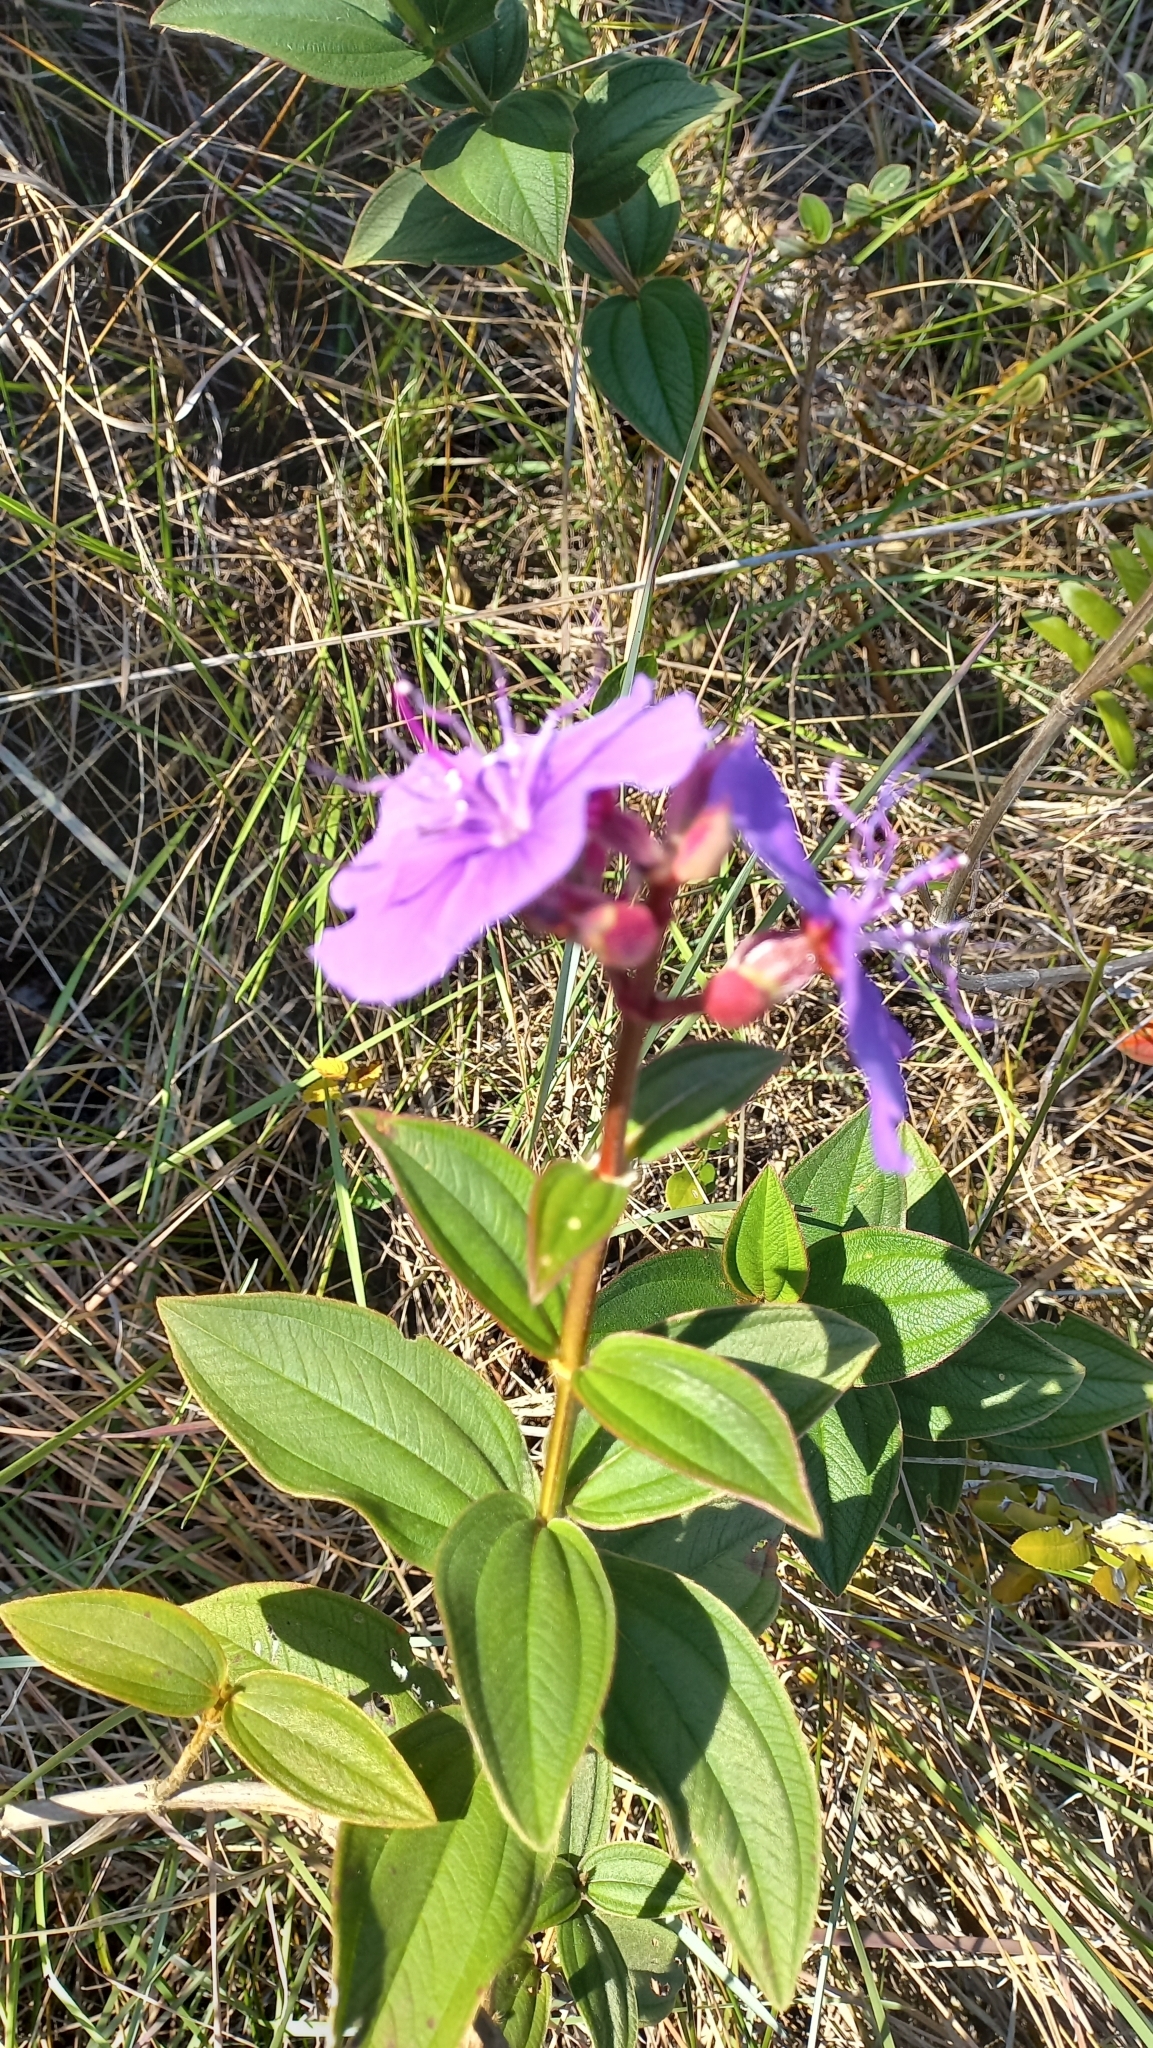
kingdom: Plantae
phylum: Tracheophyta
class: Magnoliopsida
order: Myrtales
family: Melastomataceae
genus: Pleroma
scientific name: Pleroma urvilleanum
